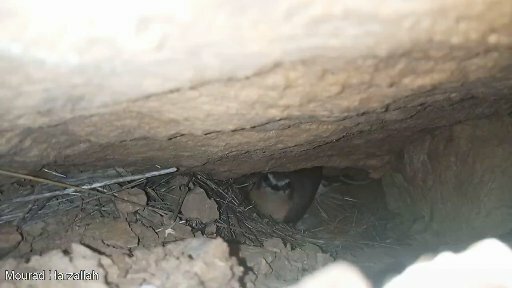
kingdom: Animalia
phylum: Chordata
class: Aves
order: Passeriformes
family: Muscicapidae
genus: Oenanthe
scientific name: Oenanthe oenanthe
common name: Northern wheatear
